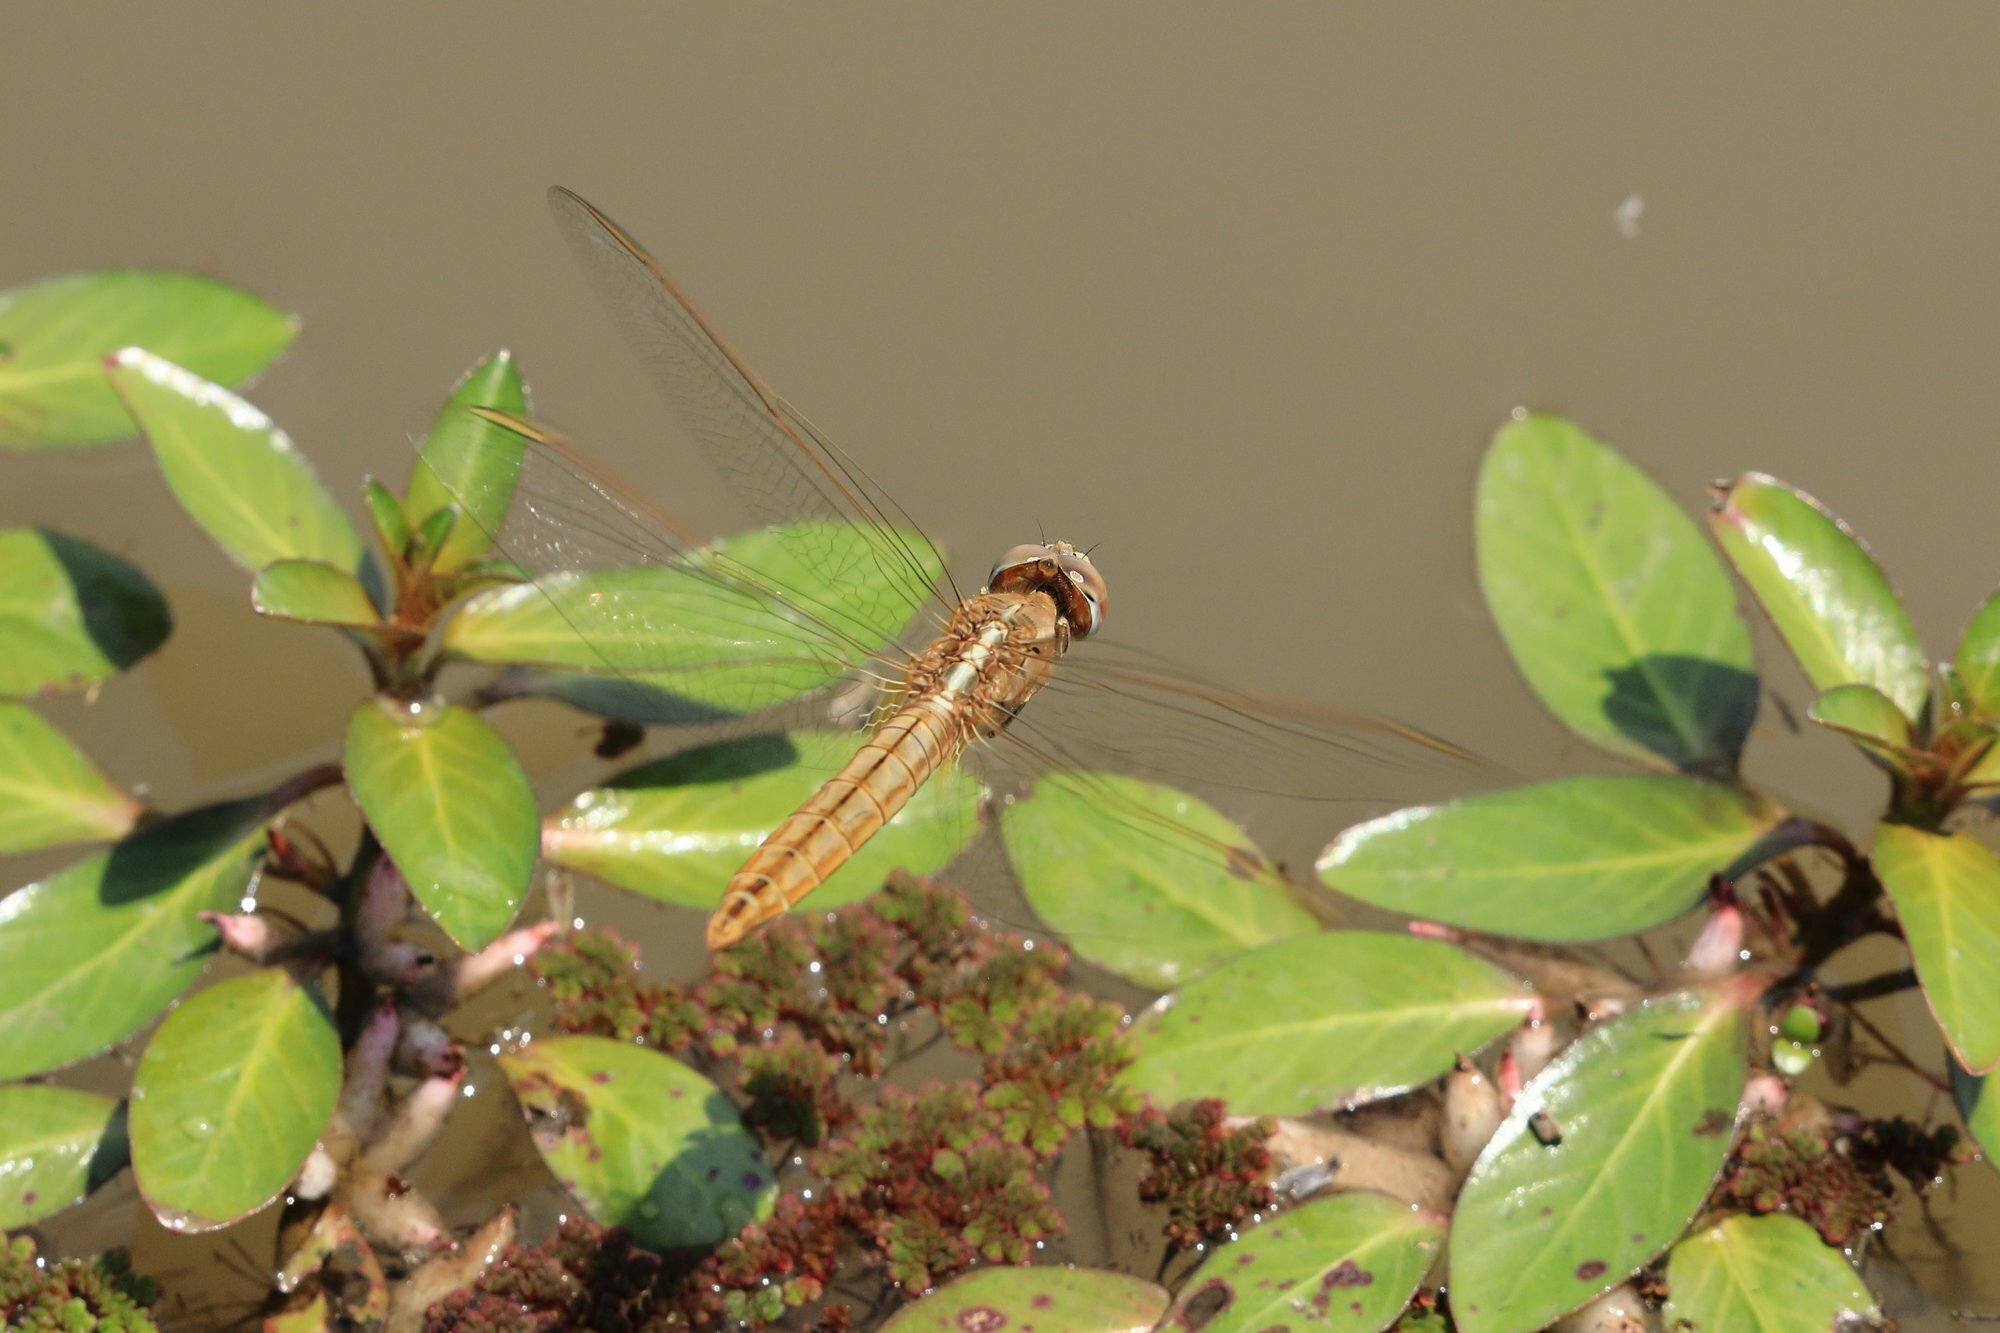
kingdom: Animalia
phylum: Arthropoda
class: Insecta
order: Odonata
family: Libellulidae
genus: Crocothemis
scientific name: Crocothemis erythraea
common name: Scarlet dragonfly
